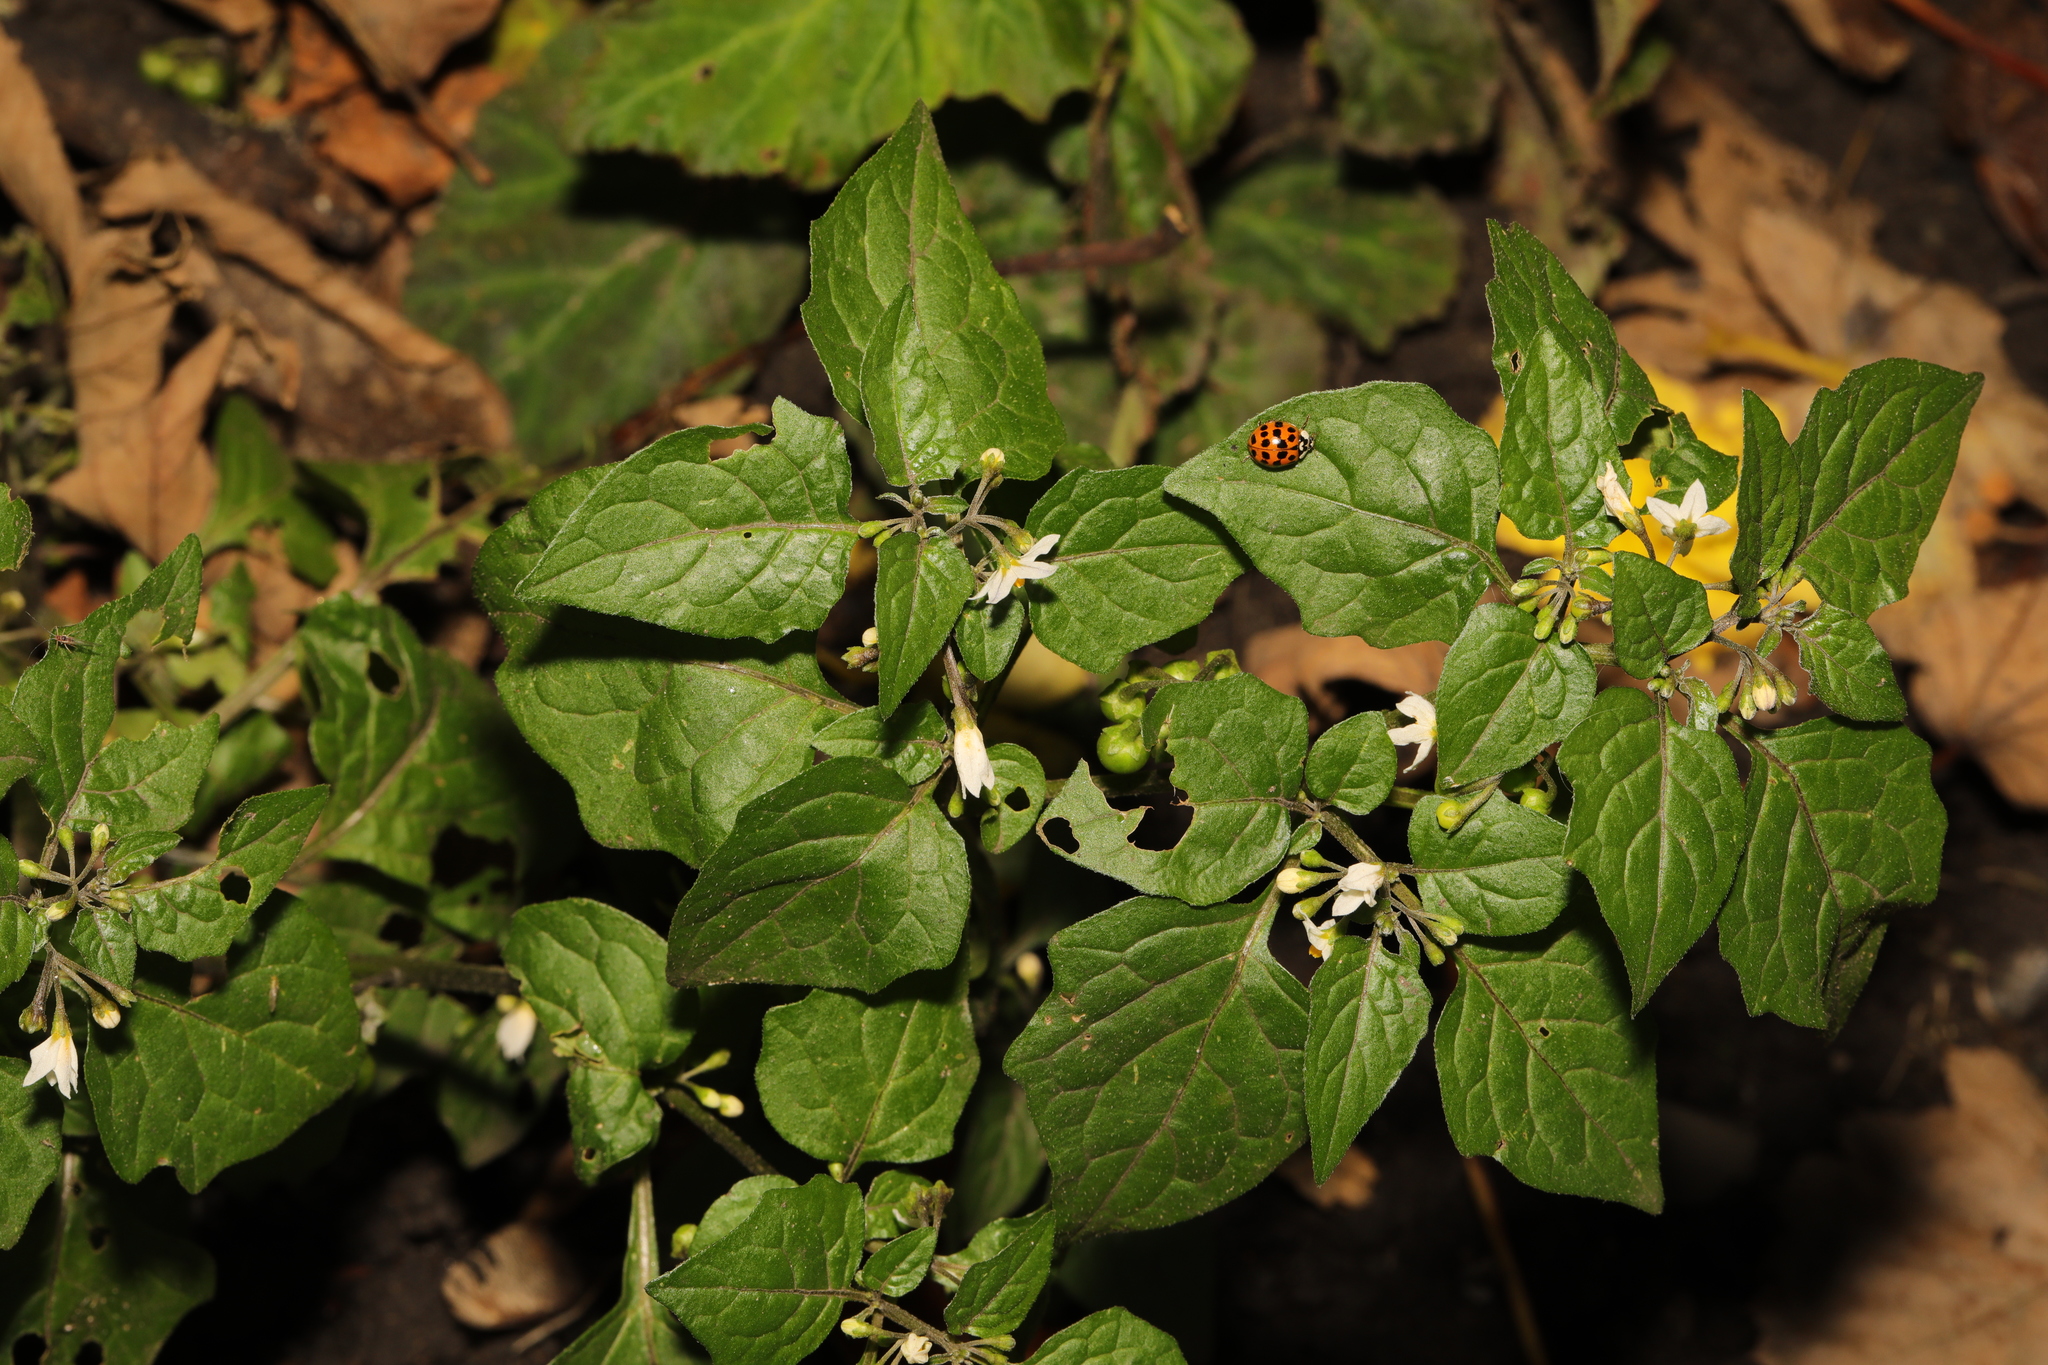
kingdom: Plantae
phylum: Tracheophyta
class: Magnoliopsida
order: Solanales
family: Solanaceae
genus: Solanum
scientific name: Solanum nigrum
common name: Black nightshade
